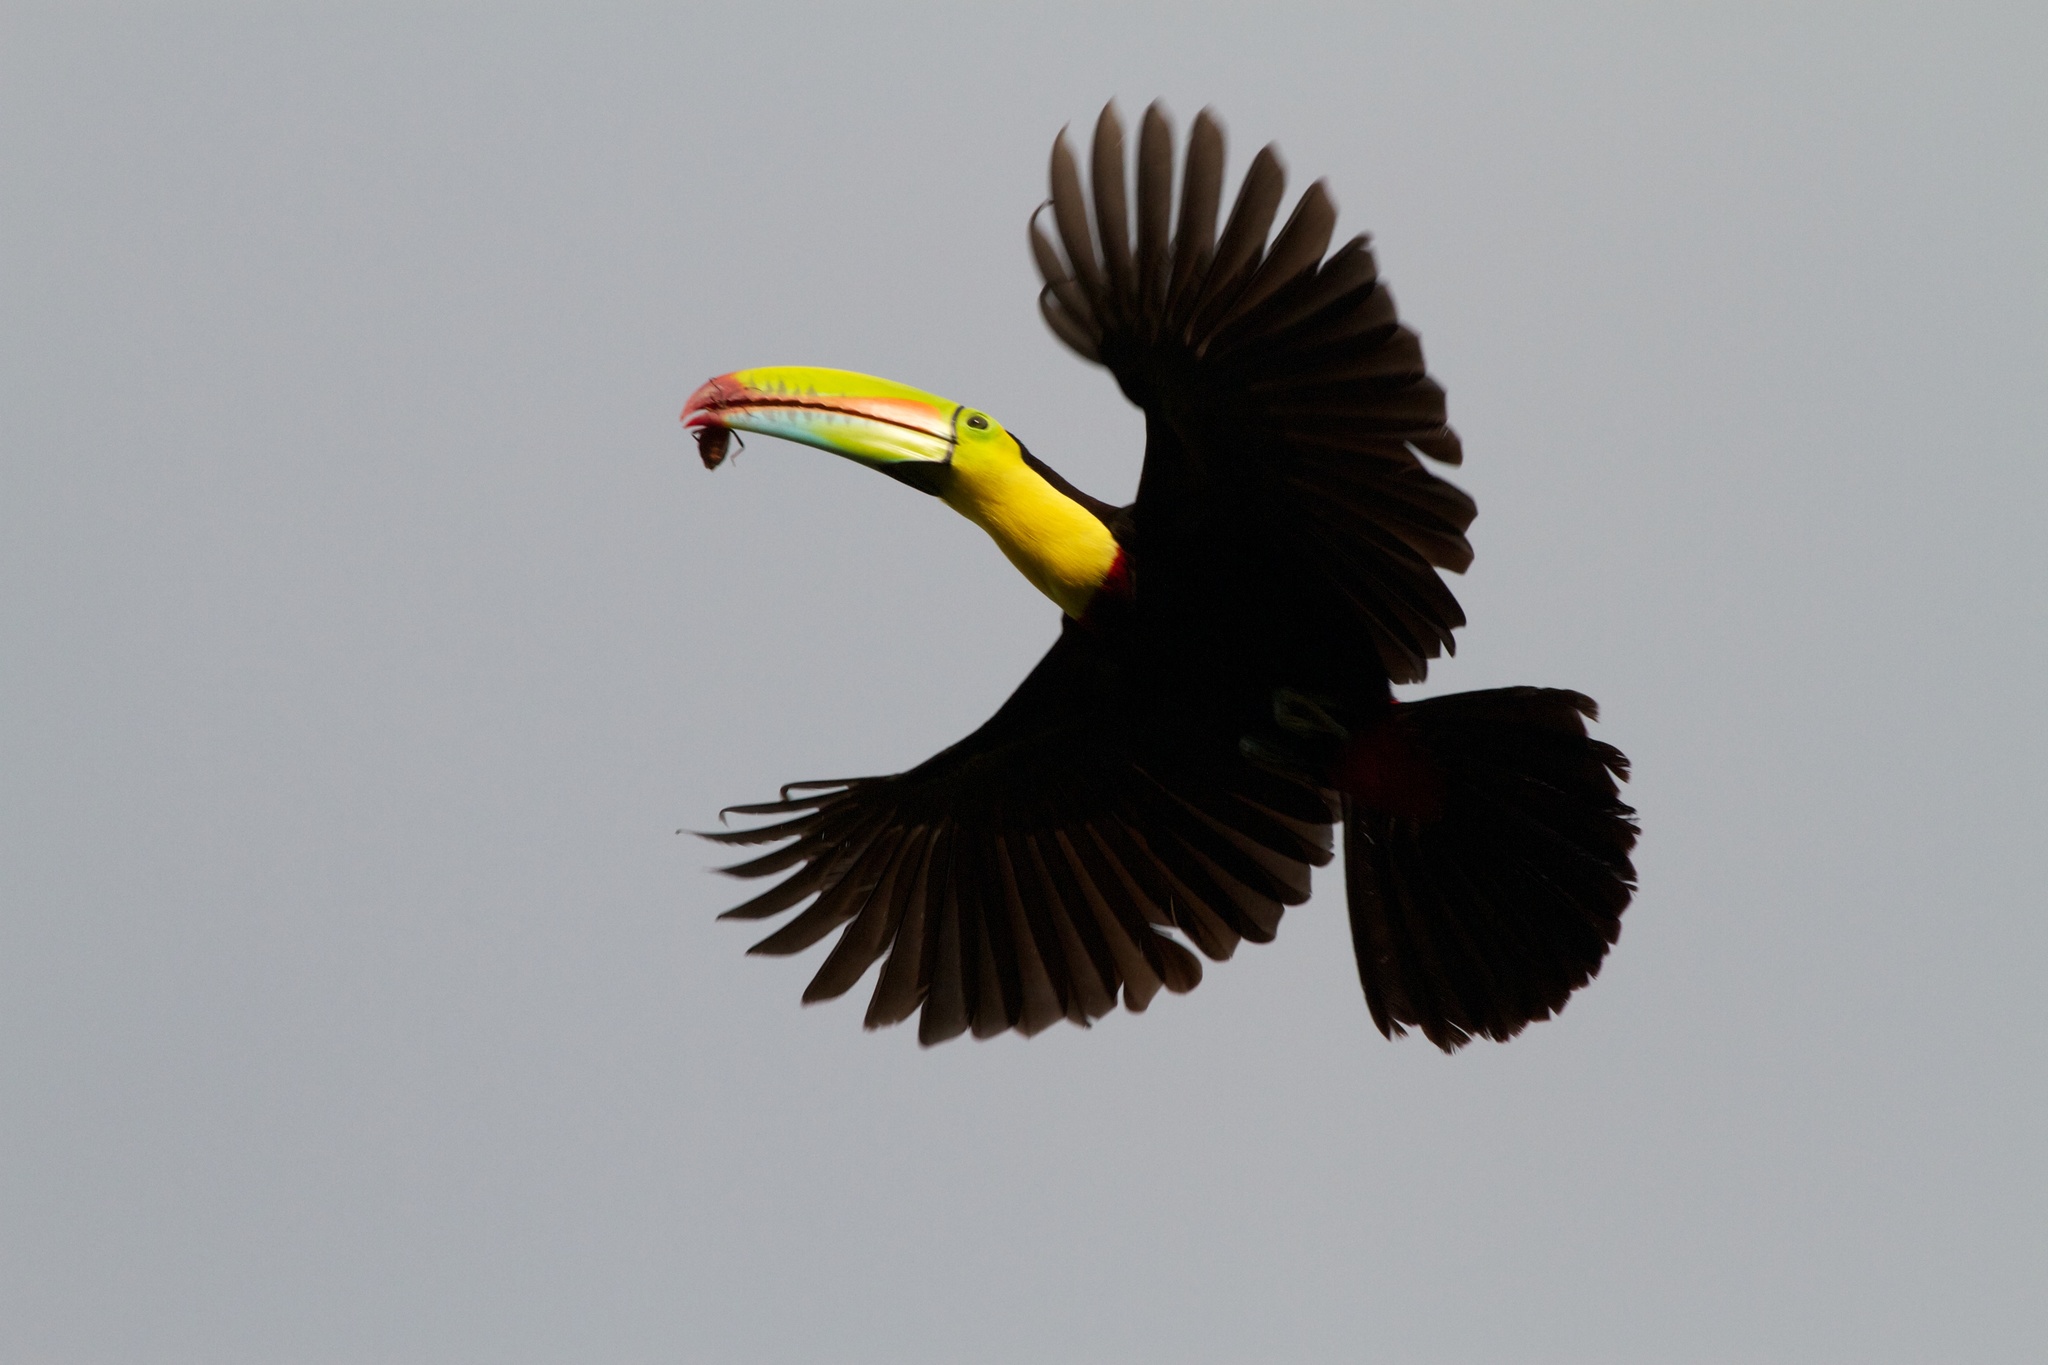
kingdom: Animalia
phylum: Chordata
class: Aves
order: Piciformes
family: Ramphastidae
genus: Ramphastos
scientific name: Ramphastos sulfuratus
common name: Keel-billed toucan
